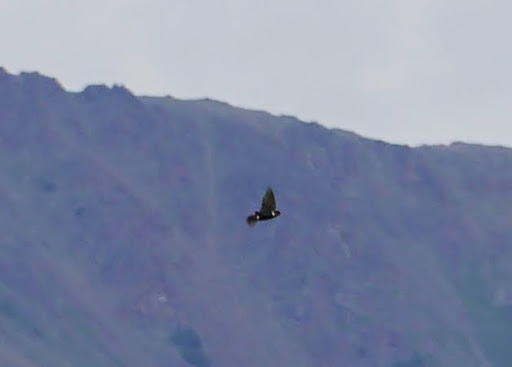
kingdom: Animalia
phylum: Chordata
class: Aves
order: Passeriformes
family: Hirundinidae
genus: Petrochelidon
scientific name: Petrochelidon pyrrhonota
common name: American cliff swallow
